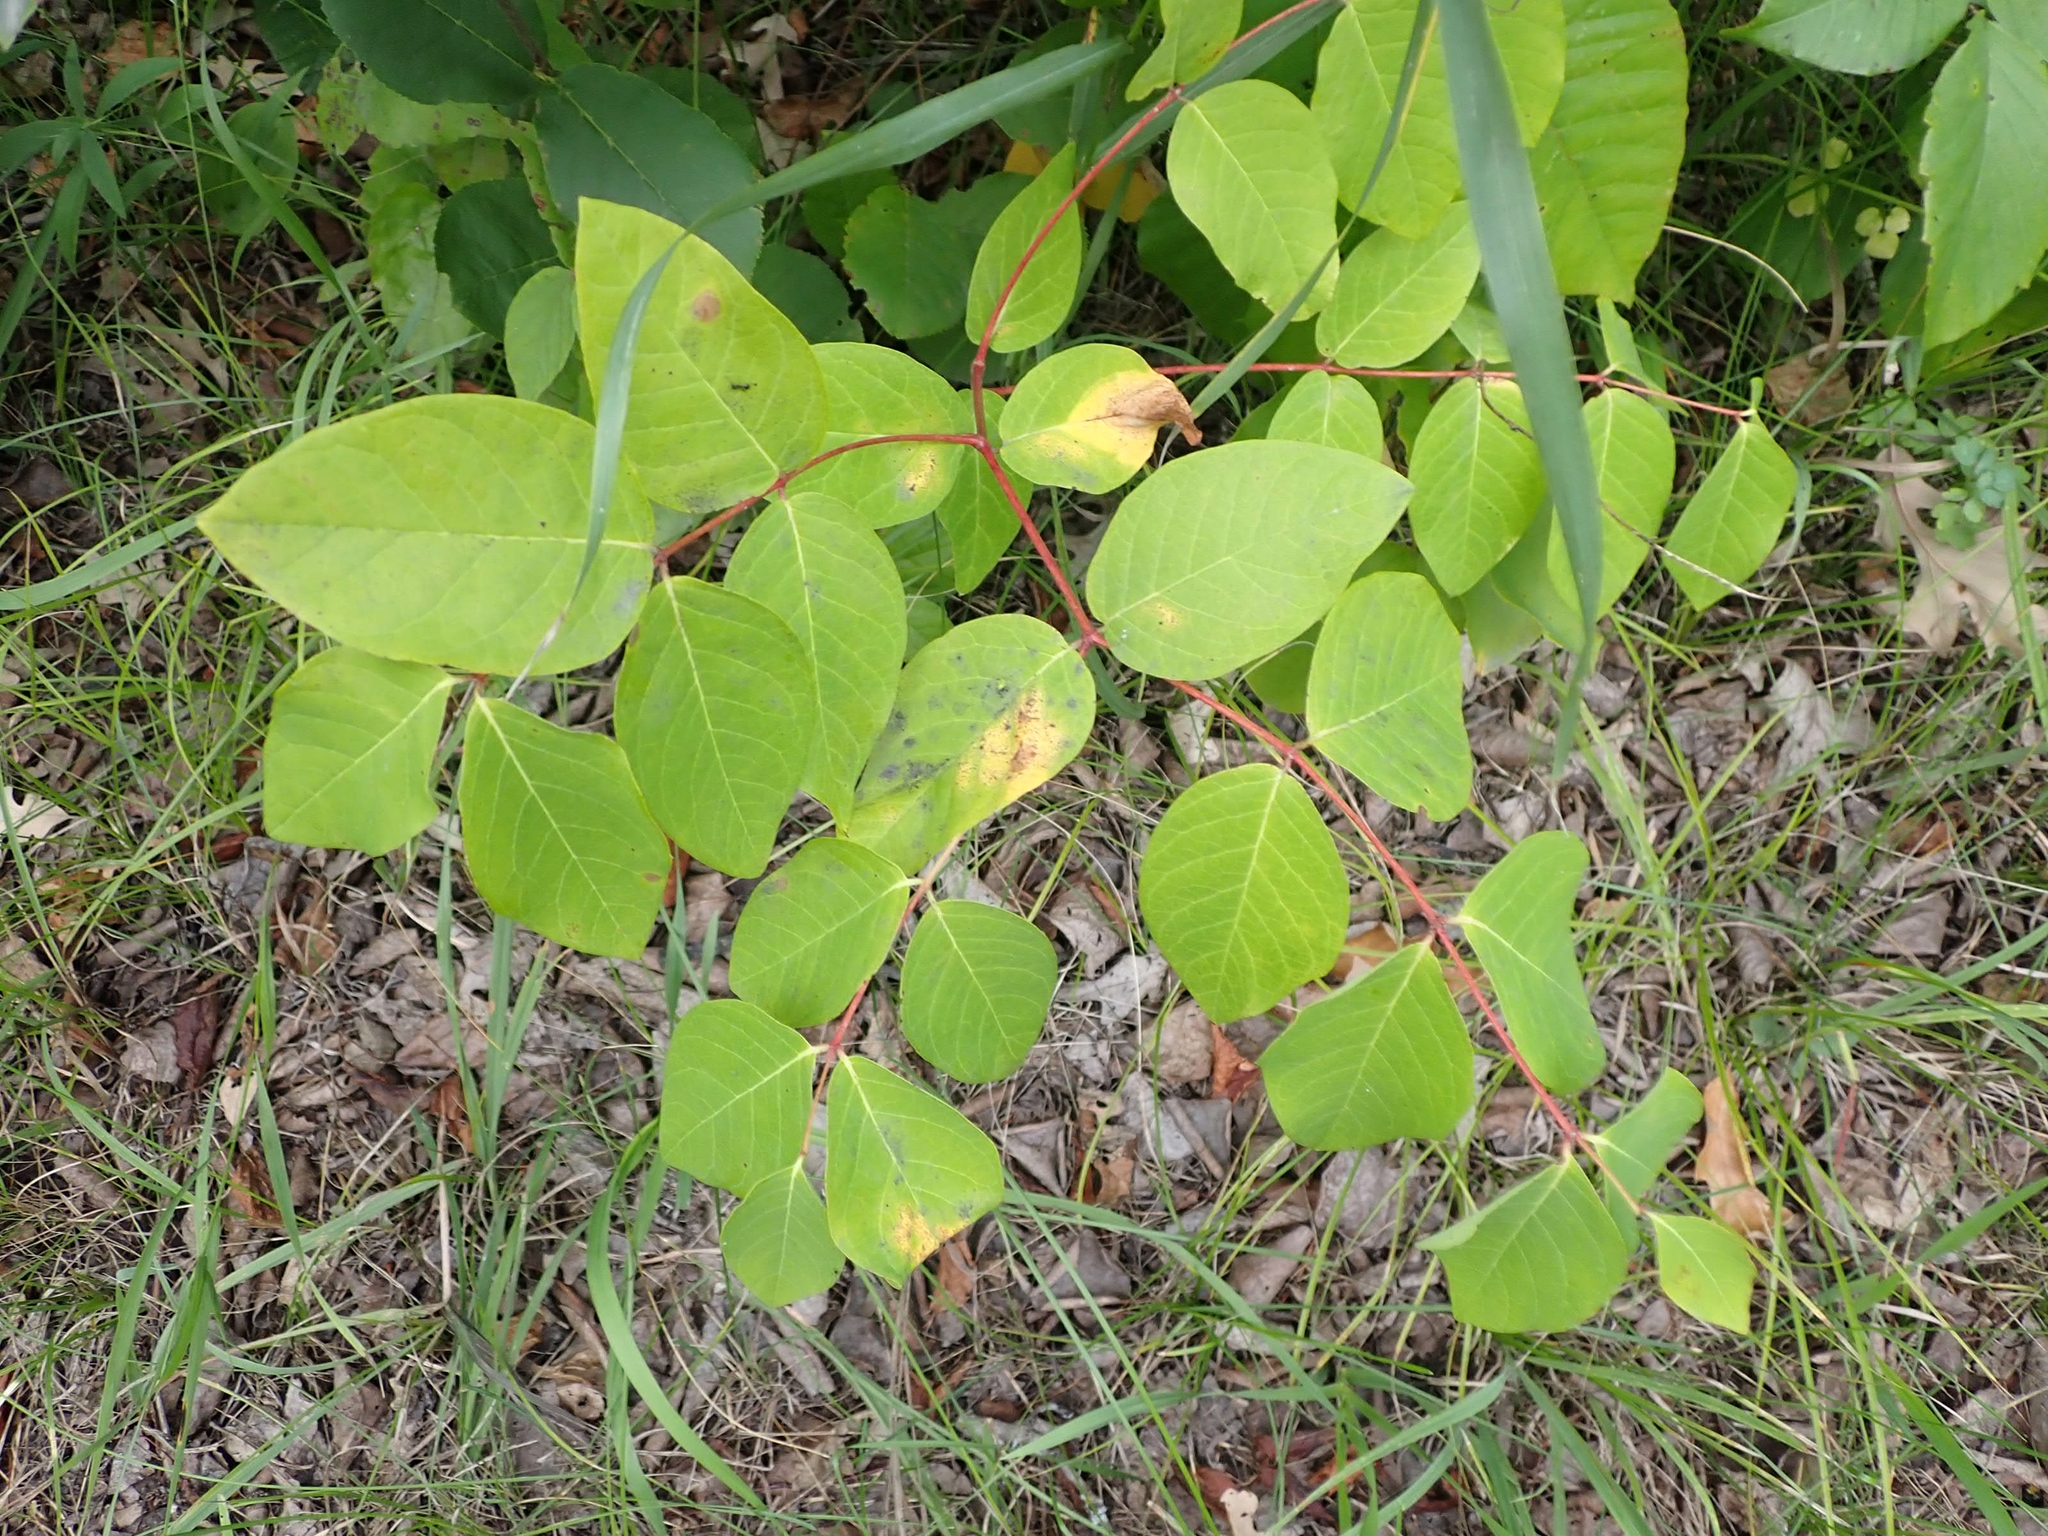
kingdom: Plantae
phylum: Tracheophyta
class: Magnoliopsida
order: Gentianales
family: Apocynaceae
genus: Apocynum
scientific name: Apocynum androsaemifolium
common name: Spreading dogbane
